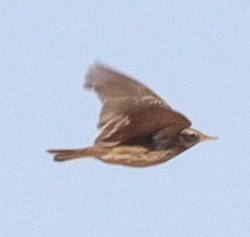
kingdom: Animalia
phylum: Chordata
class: Aves
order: Passeriformes
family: Motacillidae
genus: Anthus
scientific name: Anthus spinoletta
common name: Water pipit
